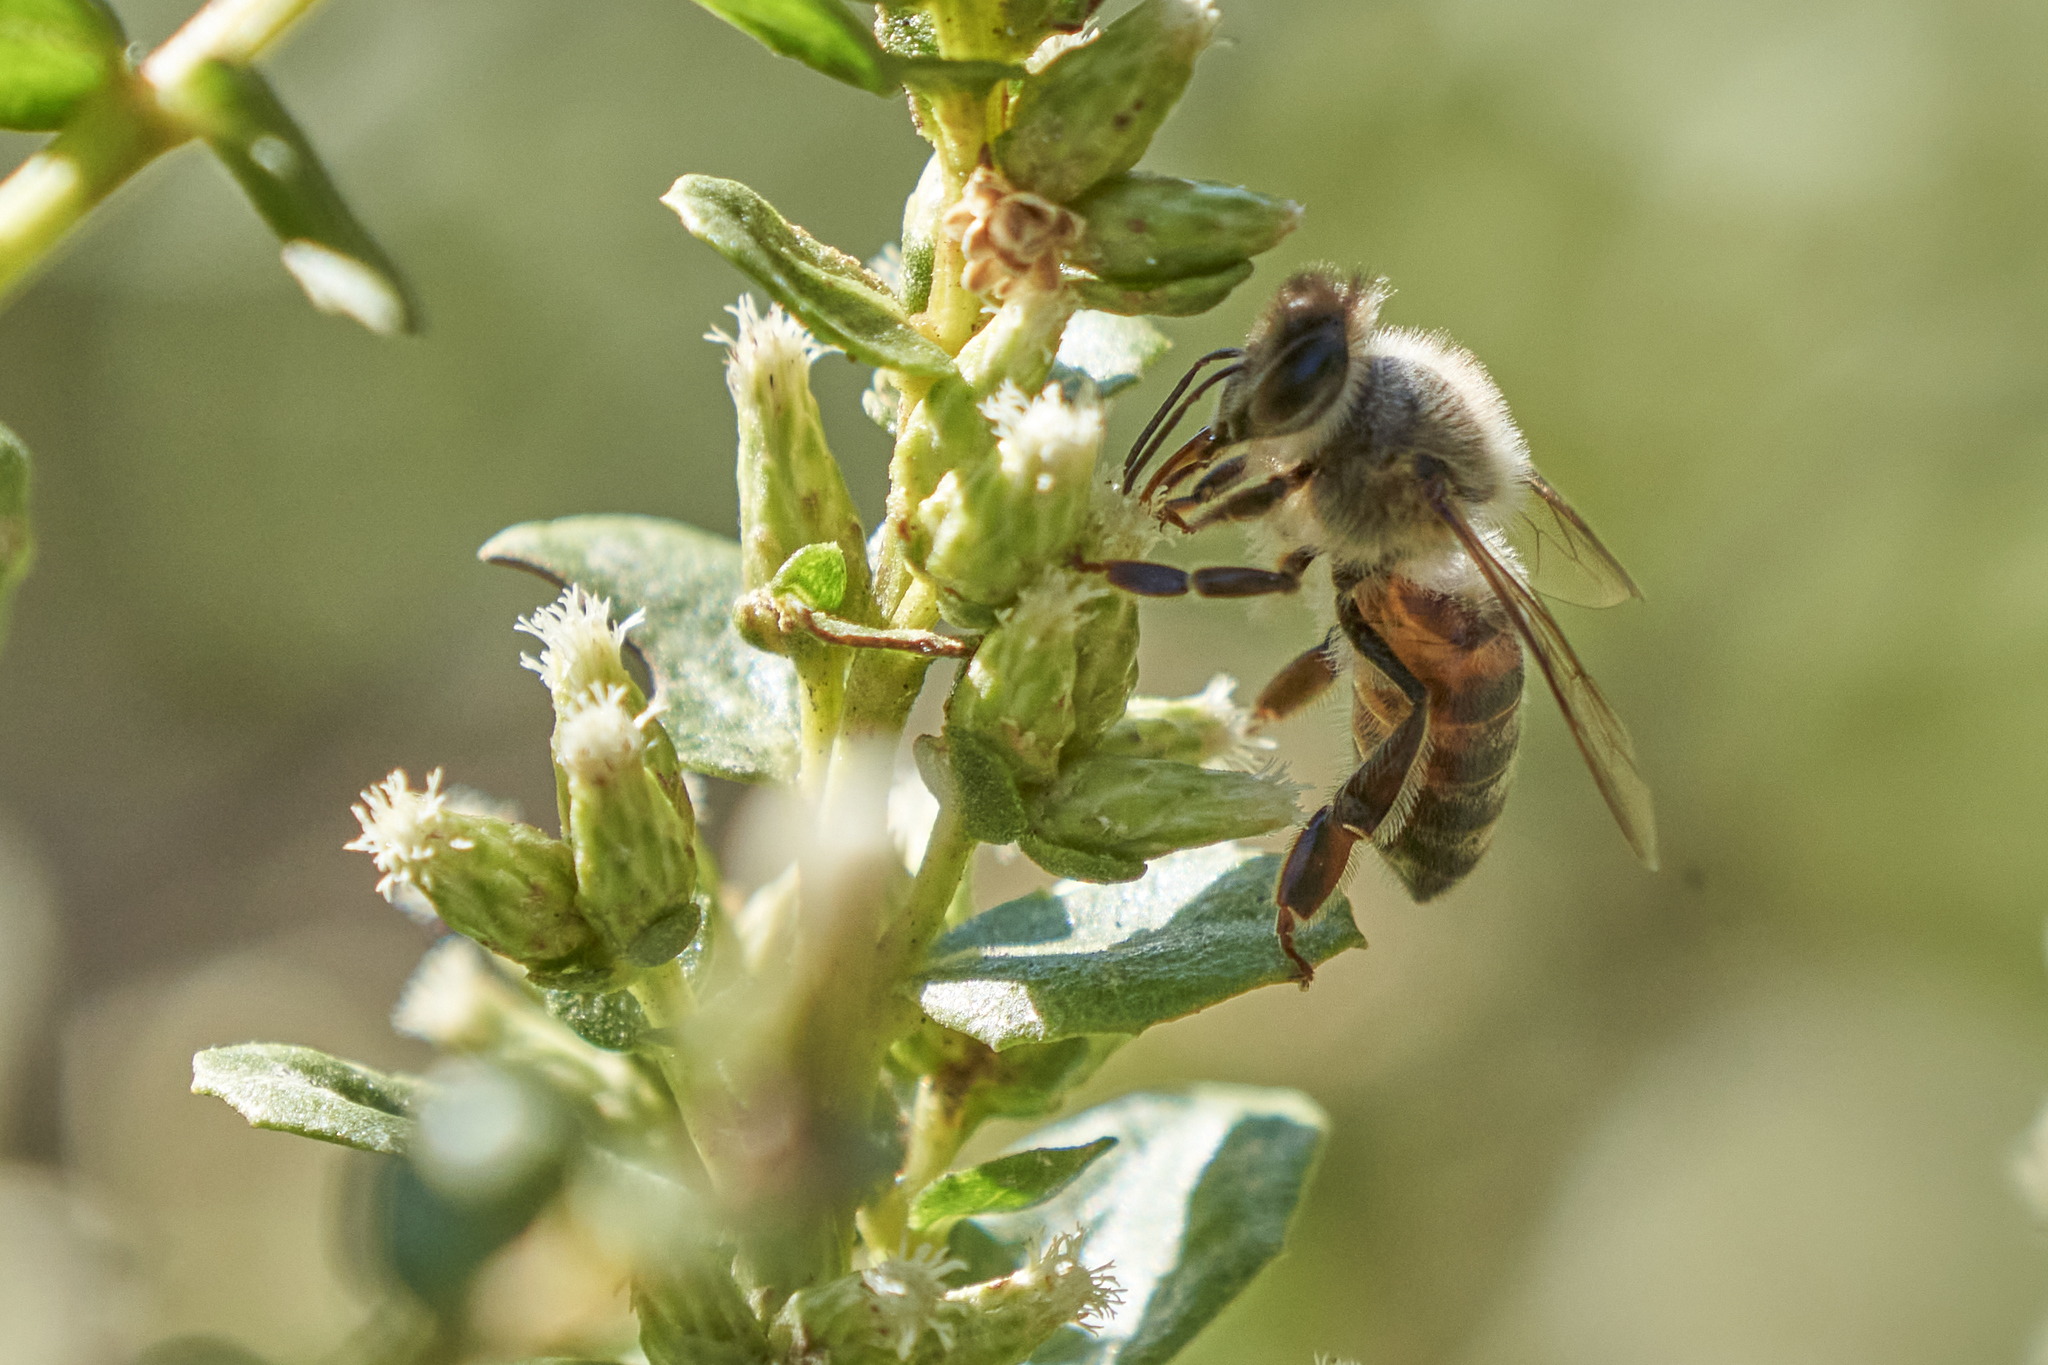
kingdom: Animalia
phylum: Arthropoda
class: Insecta
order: Hymenoptera
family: Apidae
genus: Apis
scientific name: Apis mellifera
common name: Honey bee
